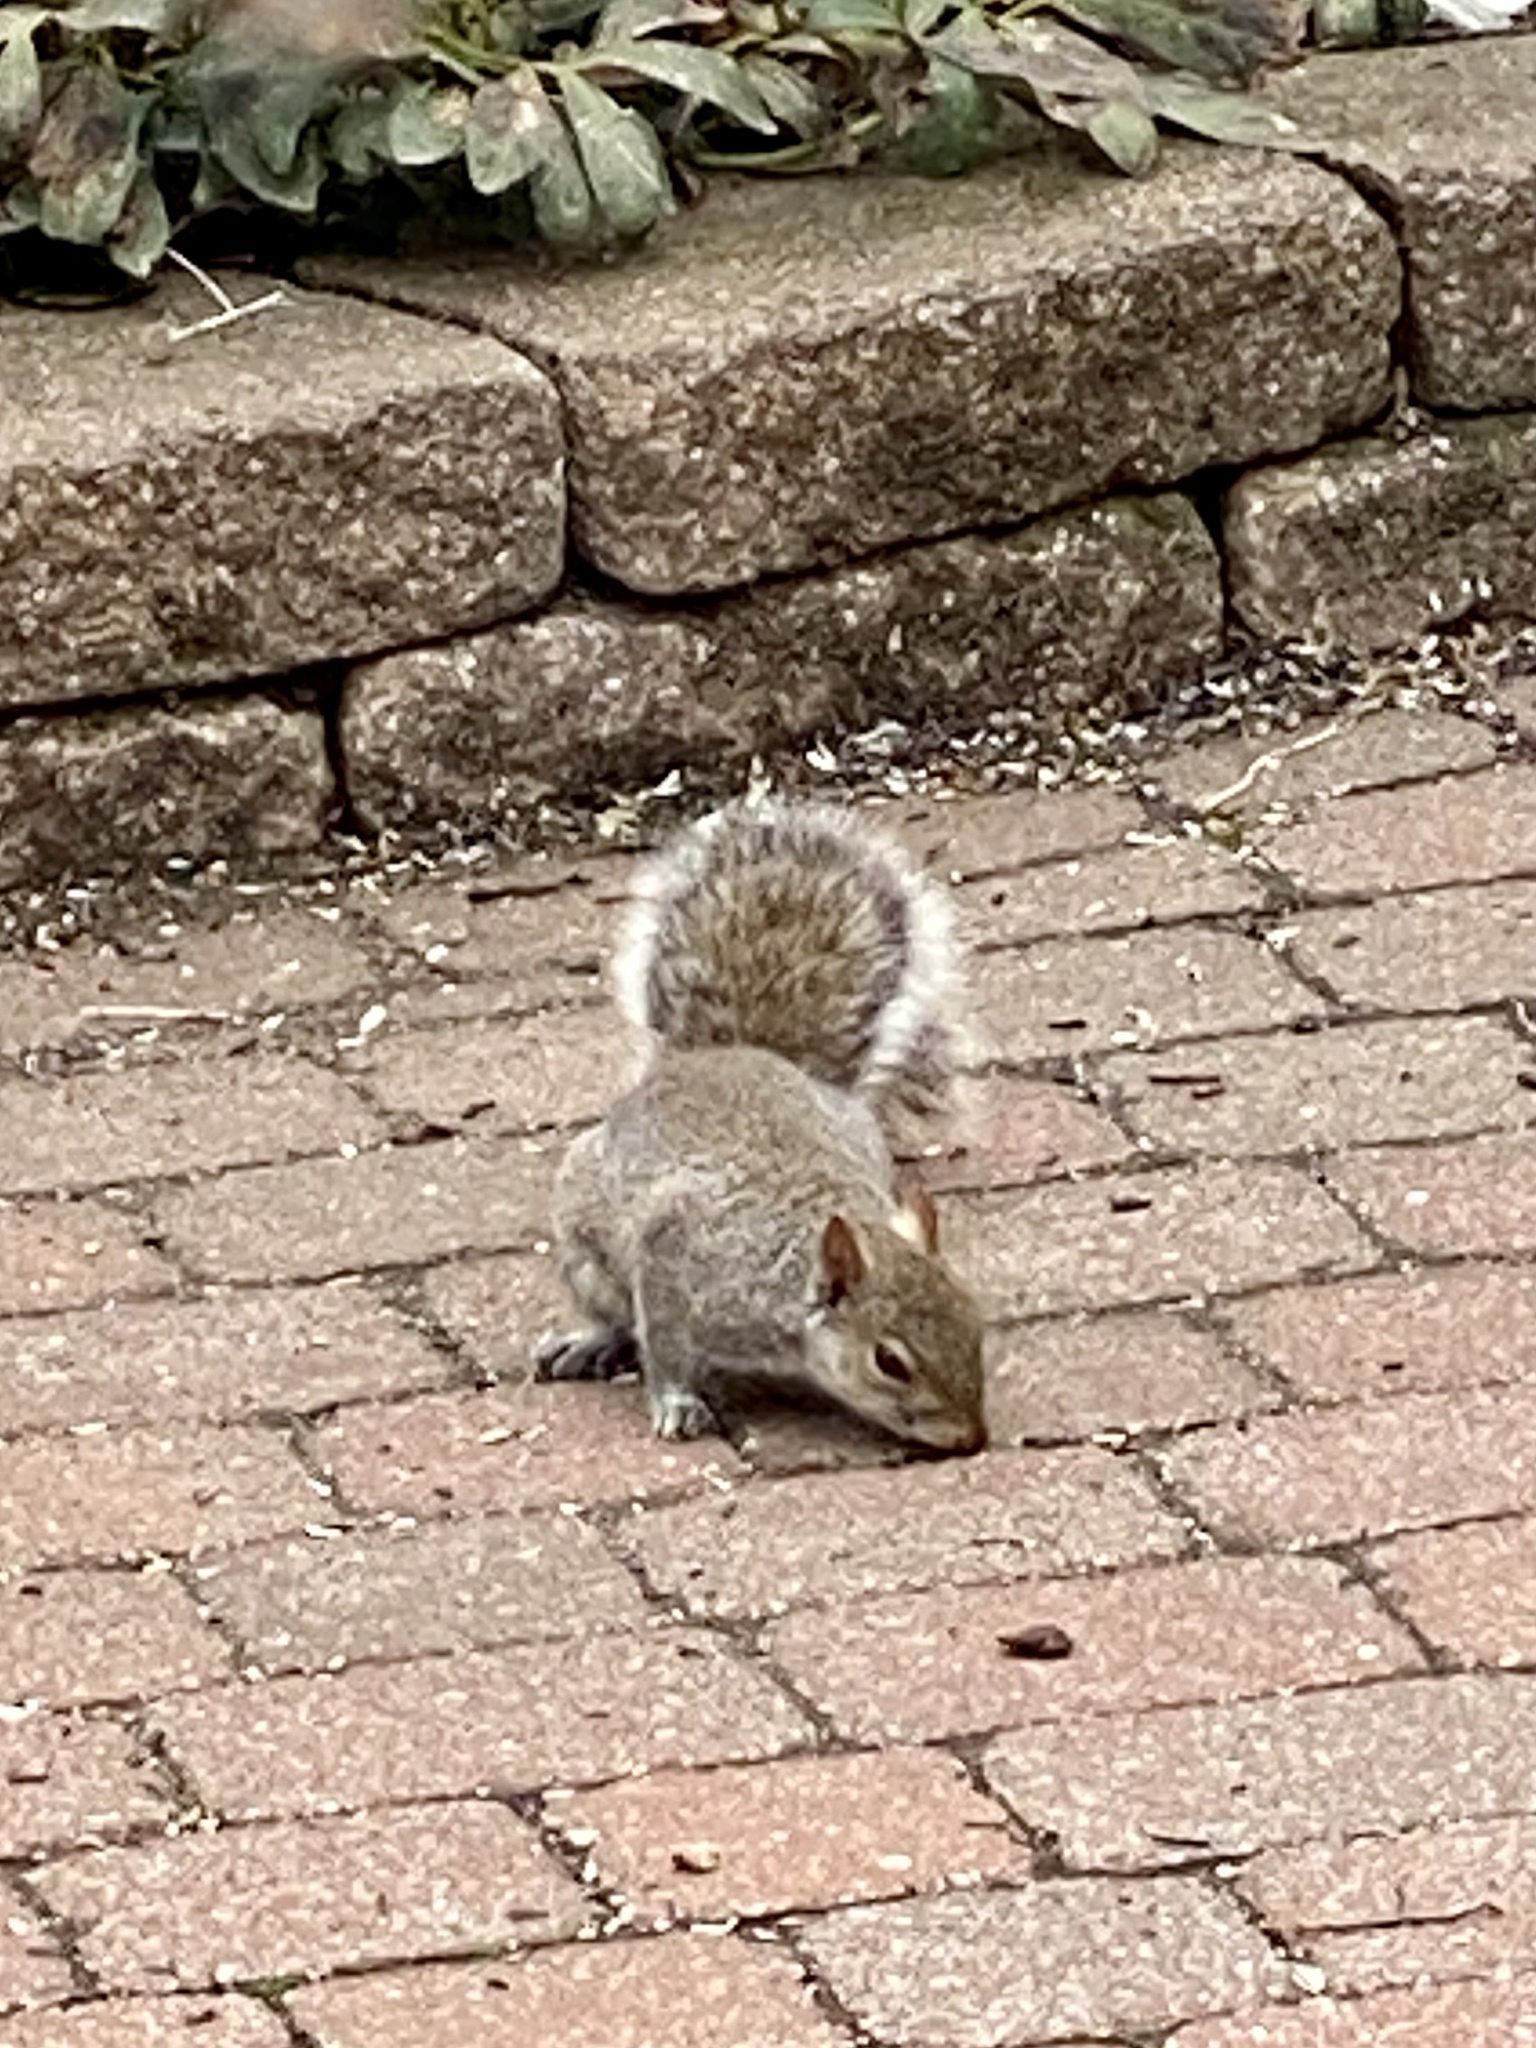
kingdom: Animalia
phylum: Chordata
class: Mammalia
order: Rodentia
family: Sciuridae
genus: Sciurus
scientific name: Sciurus carolinensis
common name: Eastern gray squirrel
